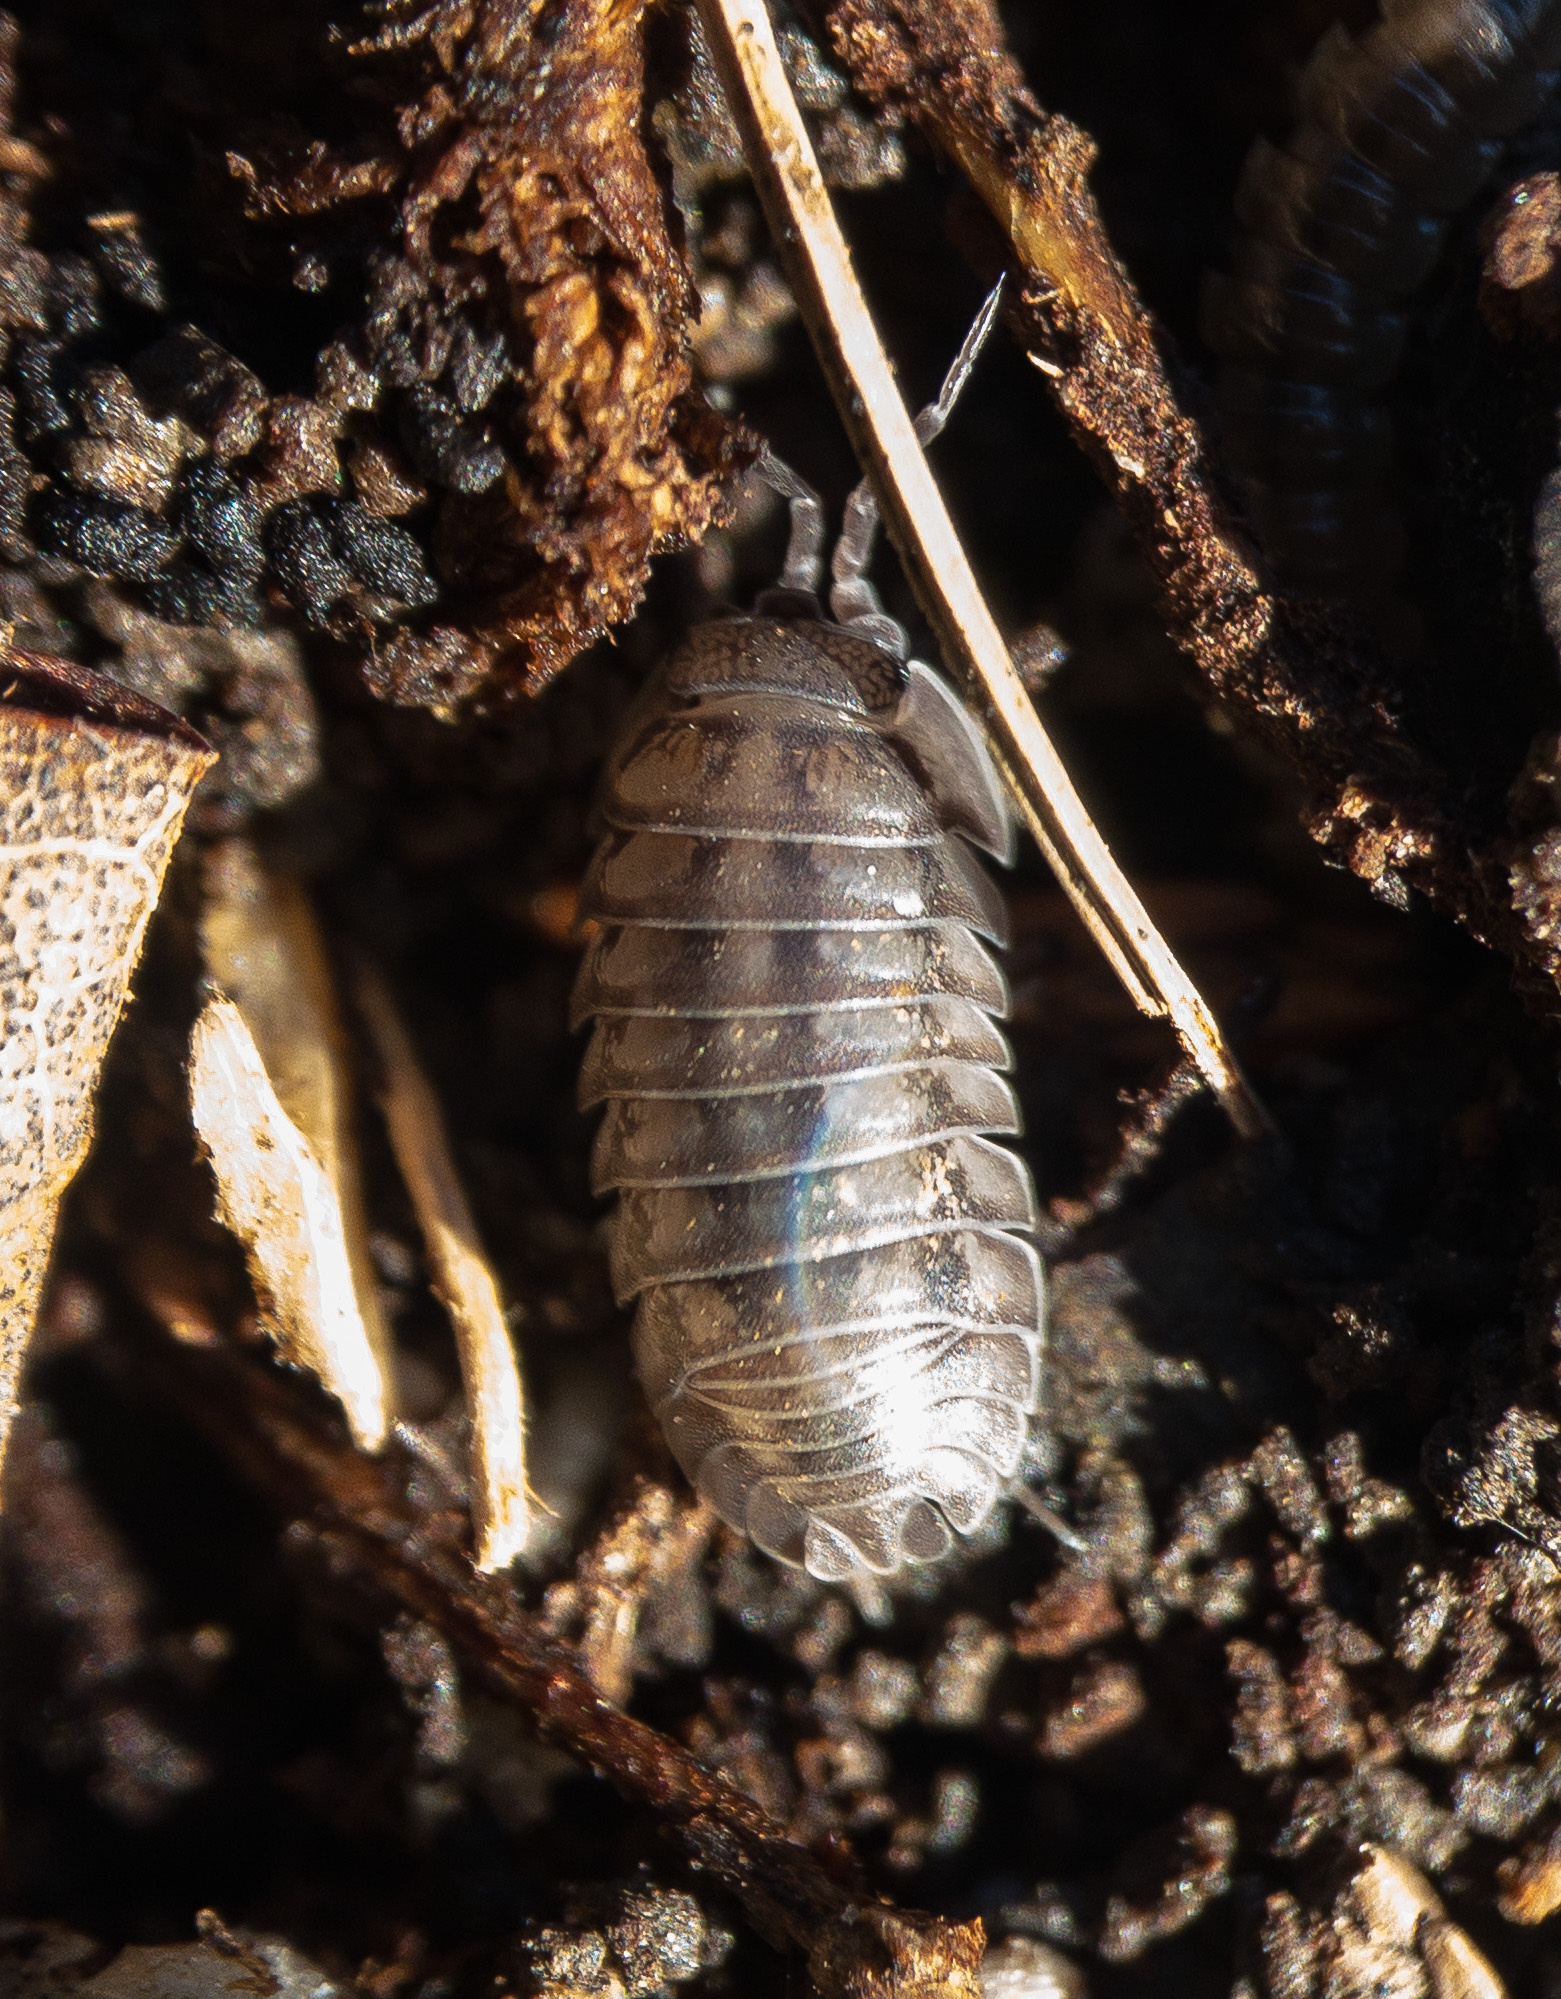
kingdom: Animalia
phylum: Arthropoda
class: Malacostraca
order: Isopoda
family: Armadillidiidae
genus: Armadillidium
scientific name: Armadillidium nasatum
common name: Isopod
